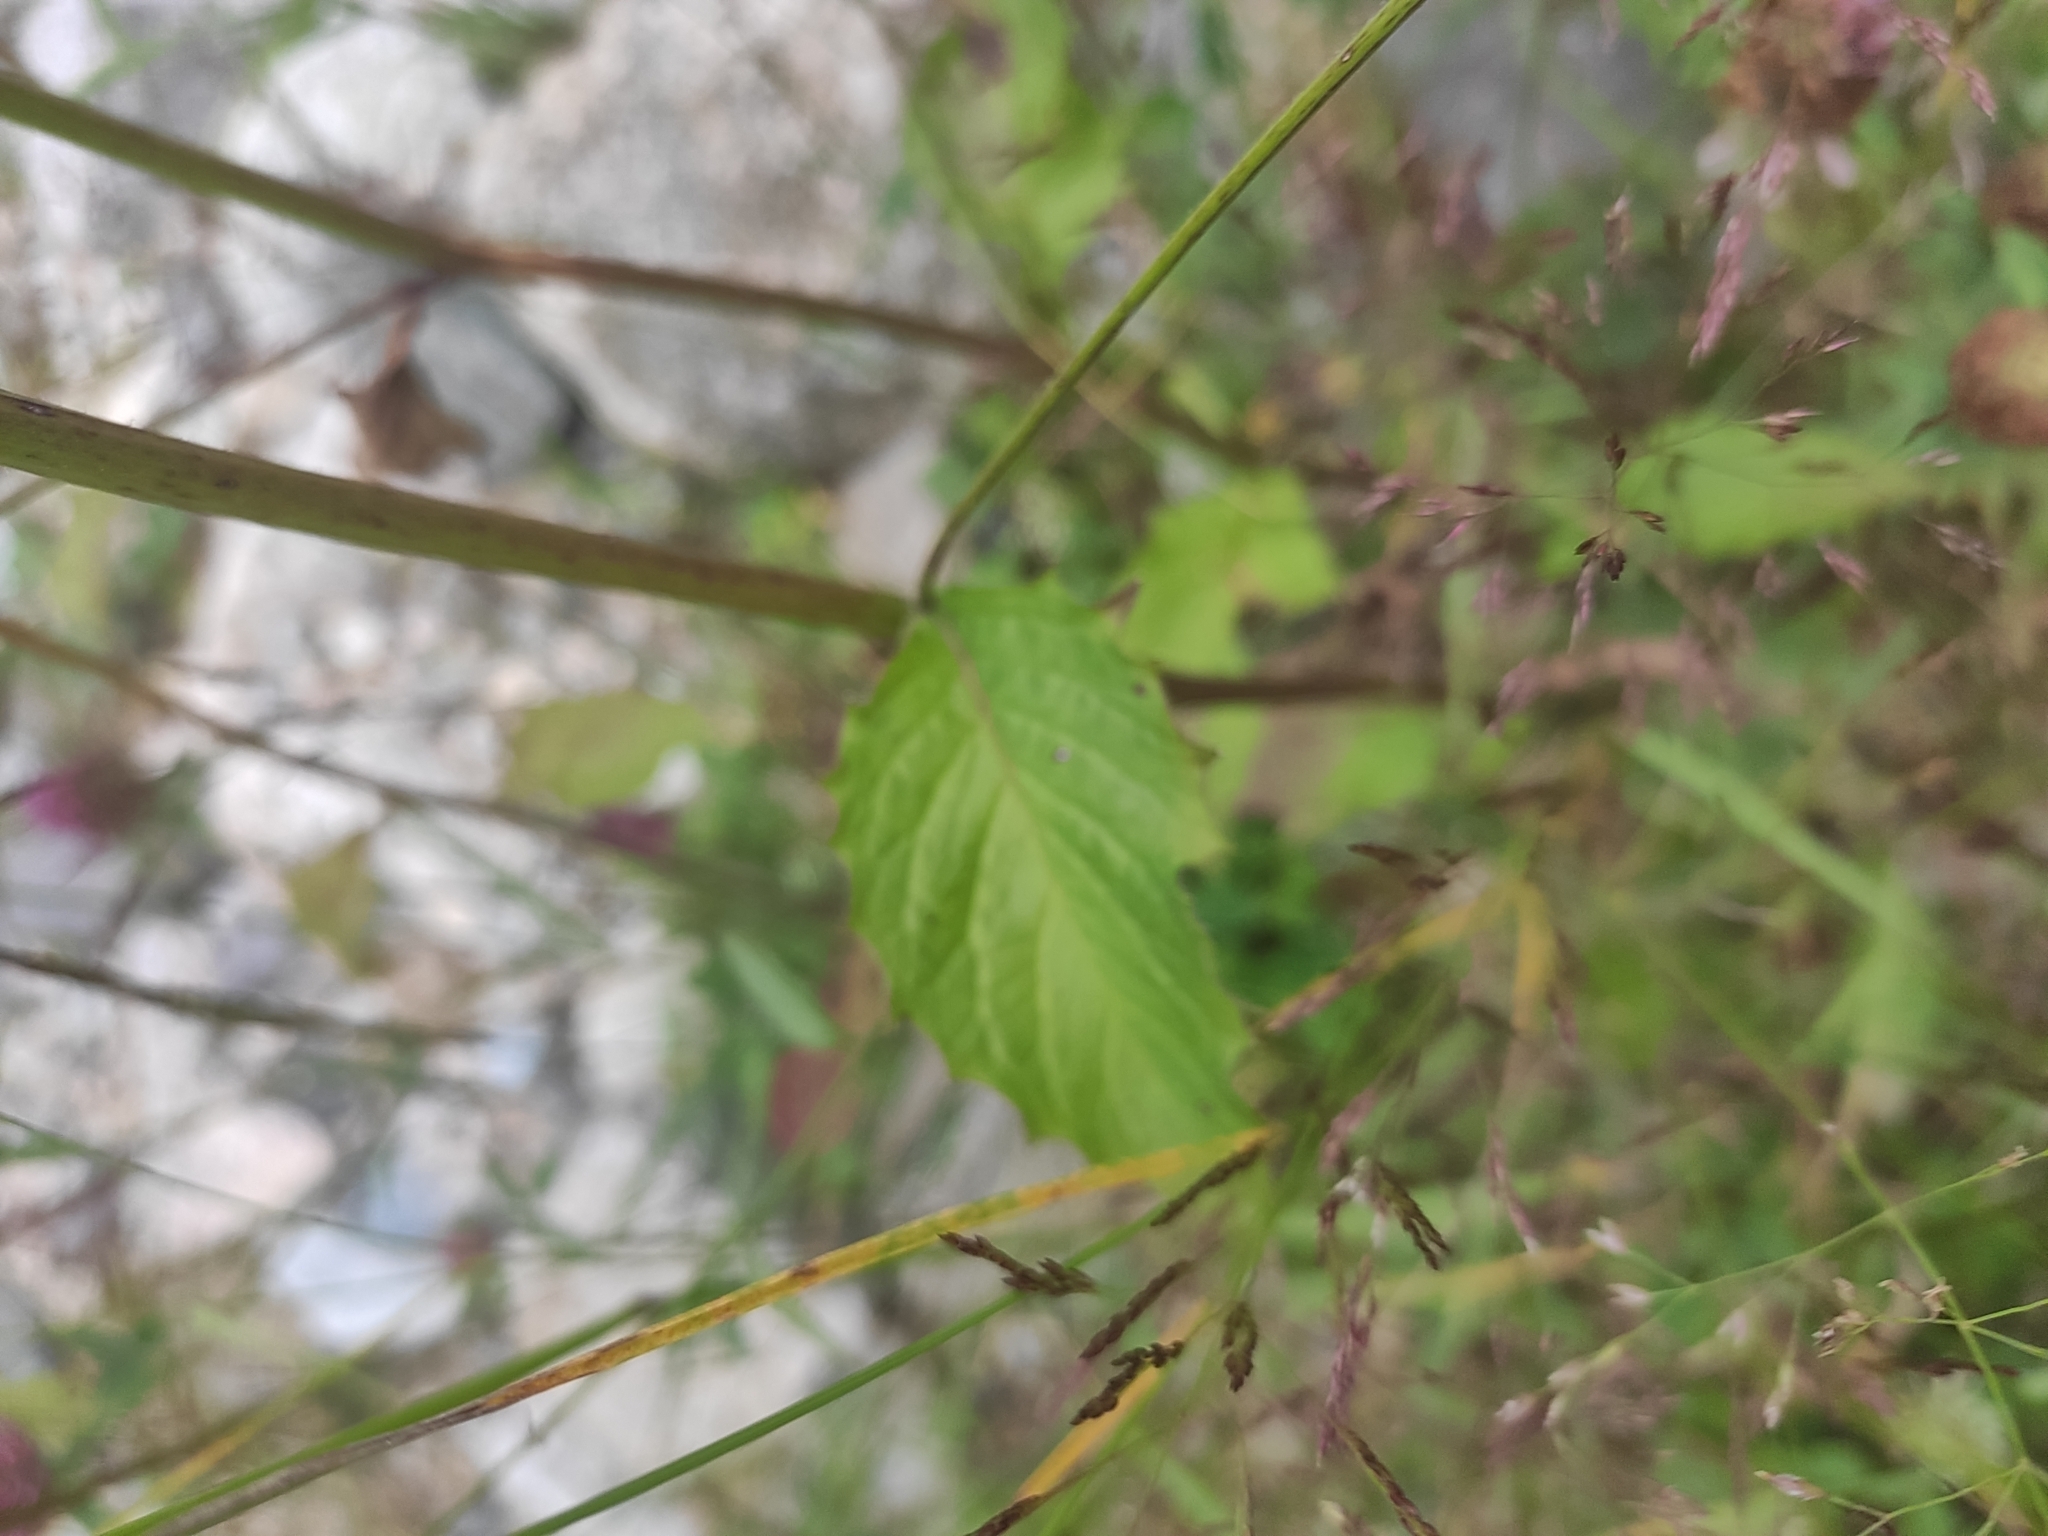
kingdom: Plantae
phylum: Tracheophyta
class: Magnoliopsida
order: Asterales
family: Asteraceae
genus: Lapsana
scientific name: Lapsana communis
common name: Nipplewort
